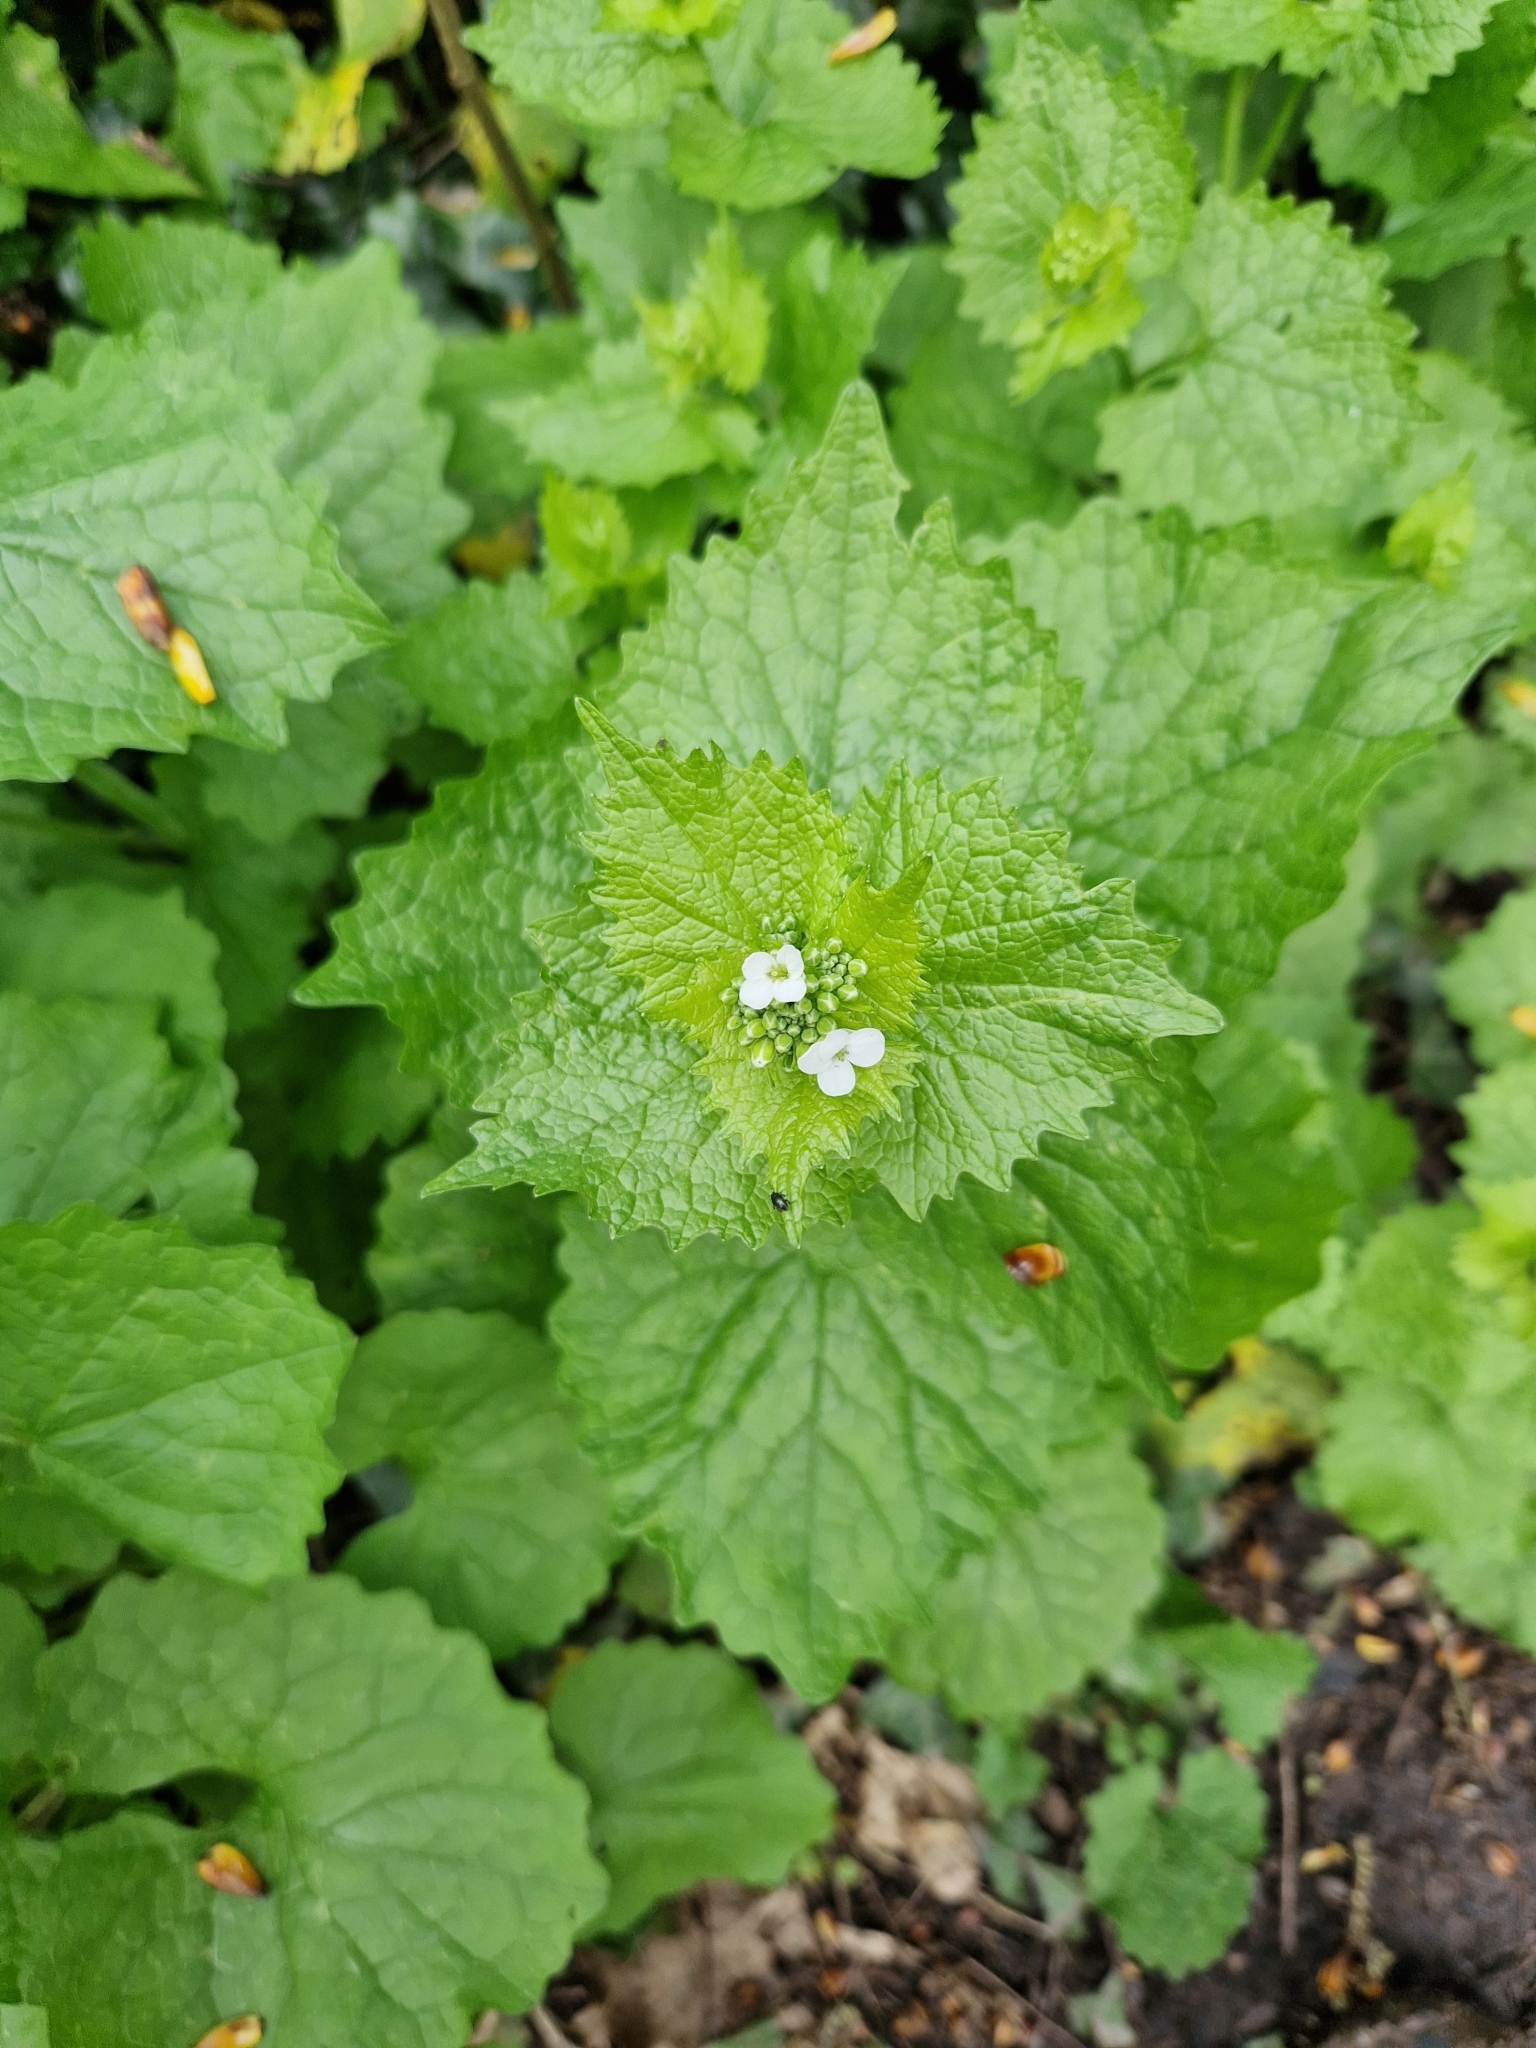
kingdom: Plantae
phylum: Tracheophyta
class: Magnoliopsida
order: Brassicales
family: Brassicaceae
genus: Alliaria
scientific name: Alliaria petiolata
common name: Garlic mustard
